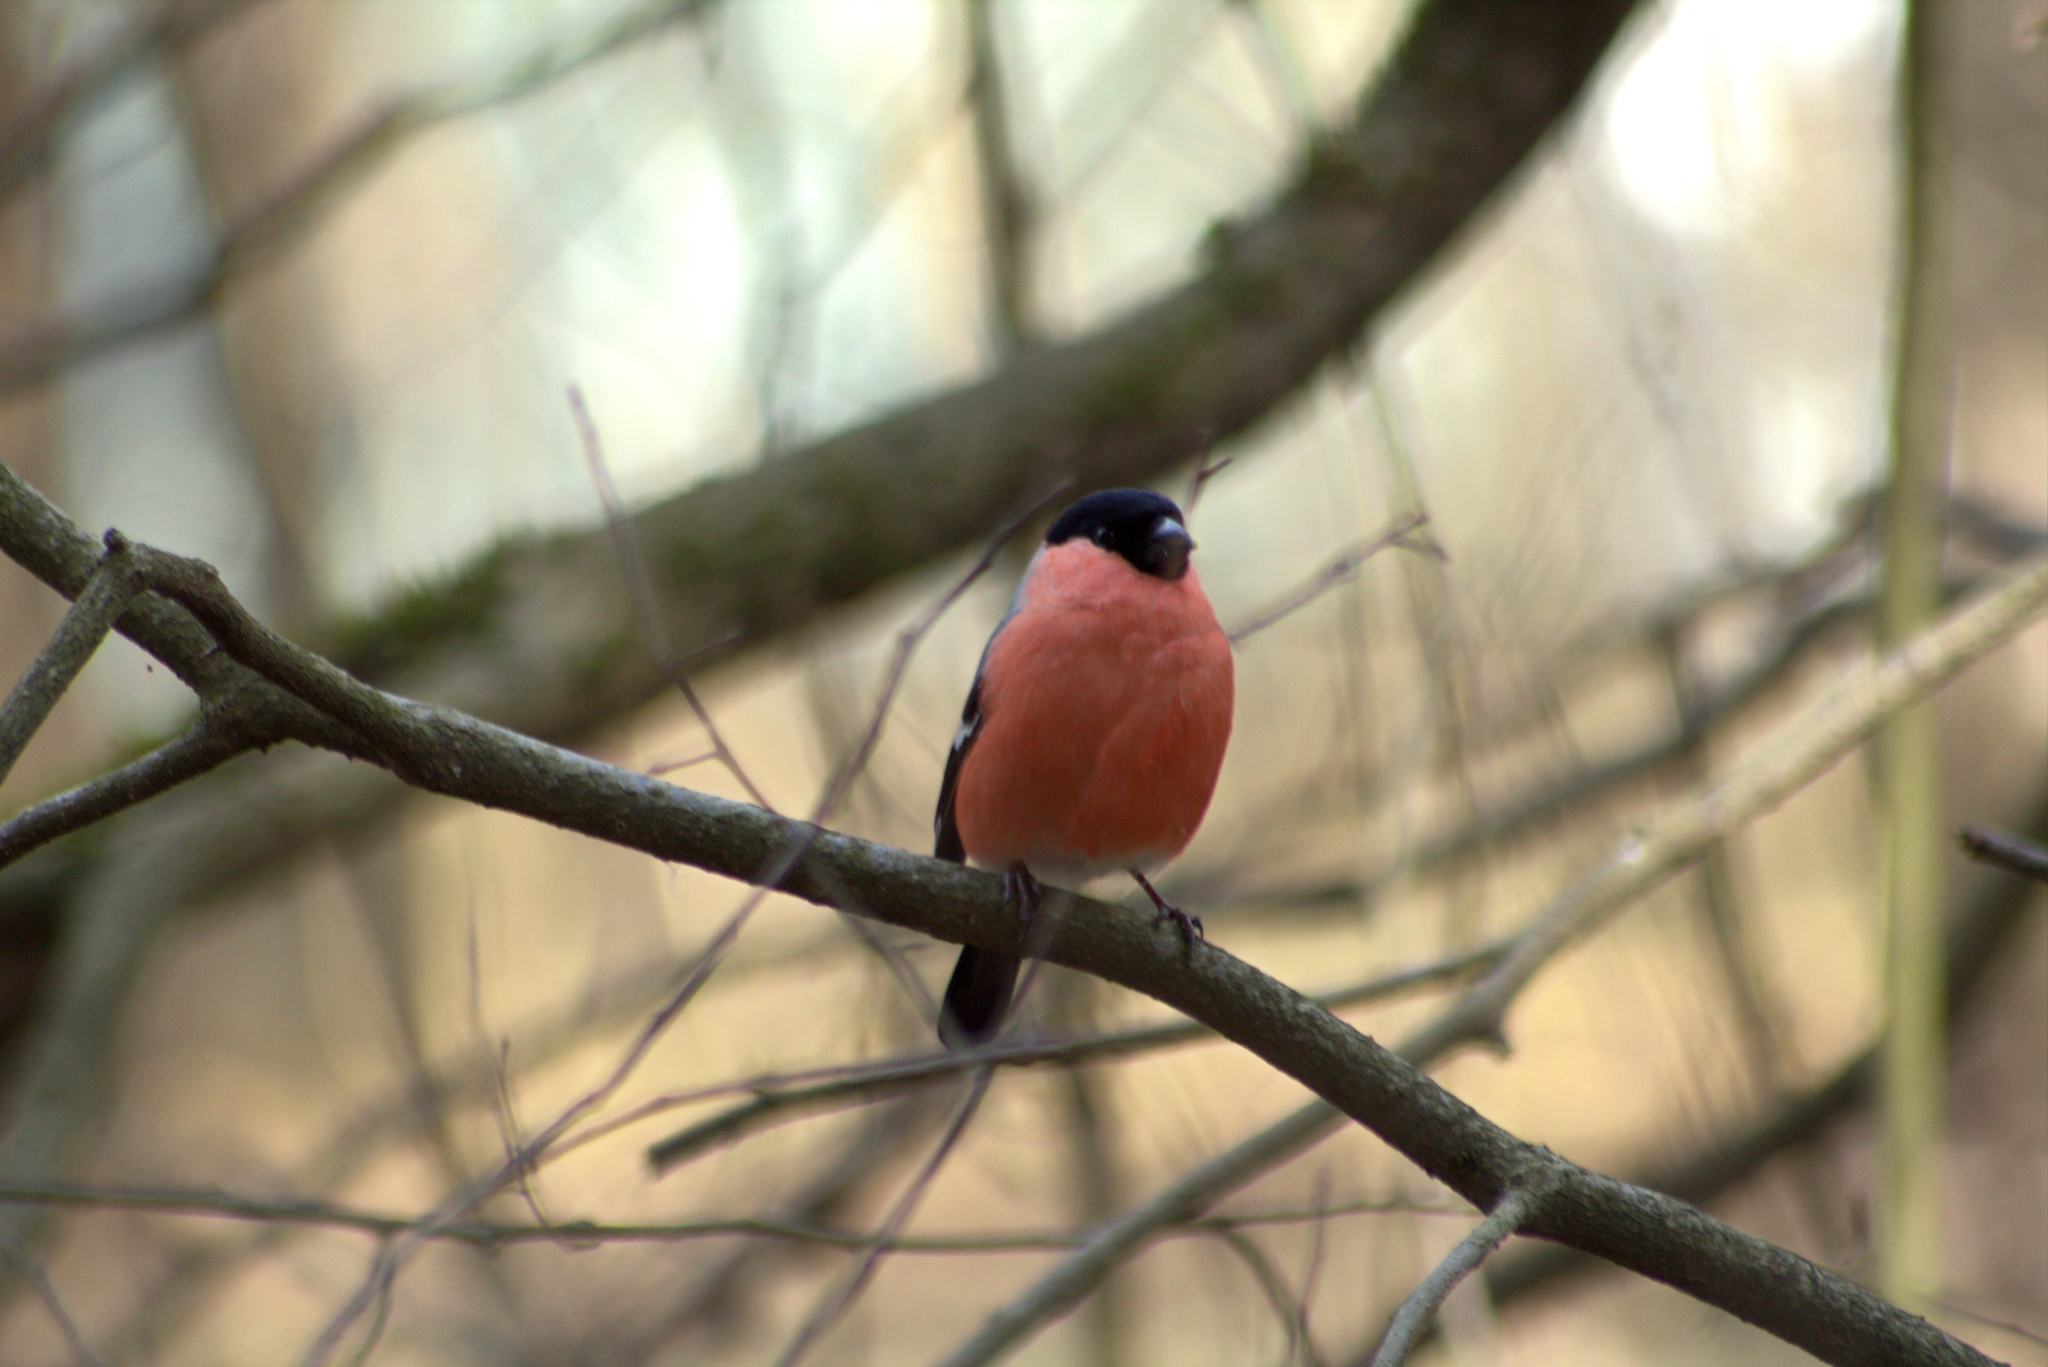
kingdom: Animalia
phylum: Chordata
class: Aves
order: Passeriformes
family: Fringillidae
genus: Pyrrhula
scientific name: Pyrrhula pyrrhula
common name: Eurasian bullfinch
